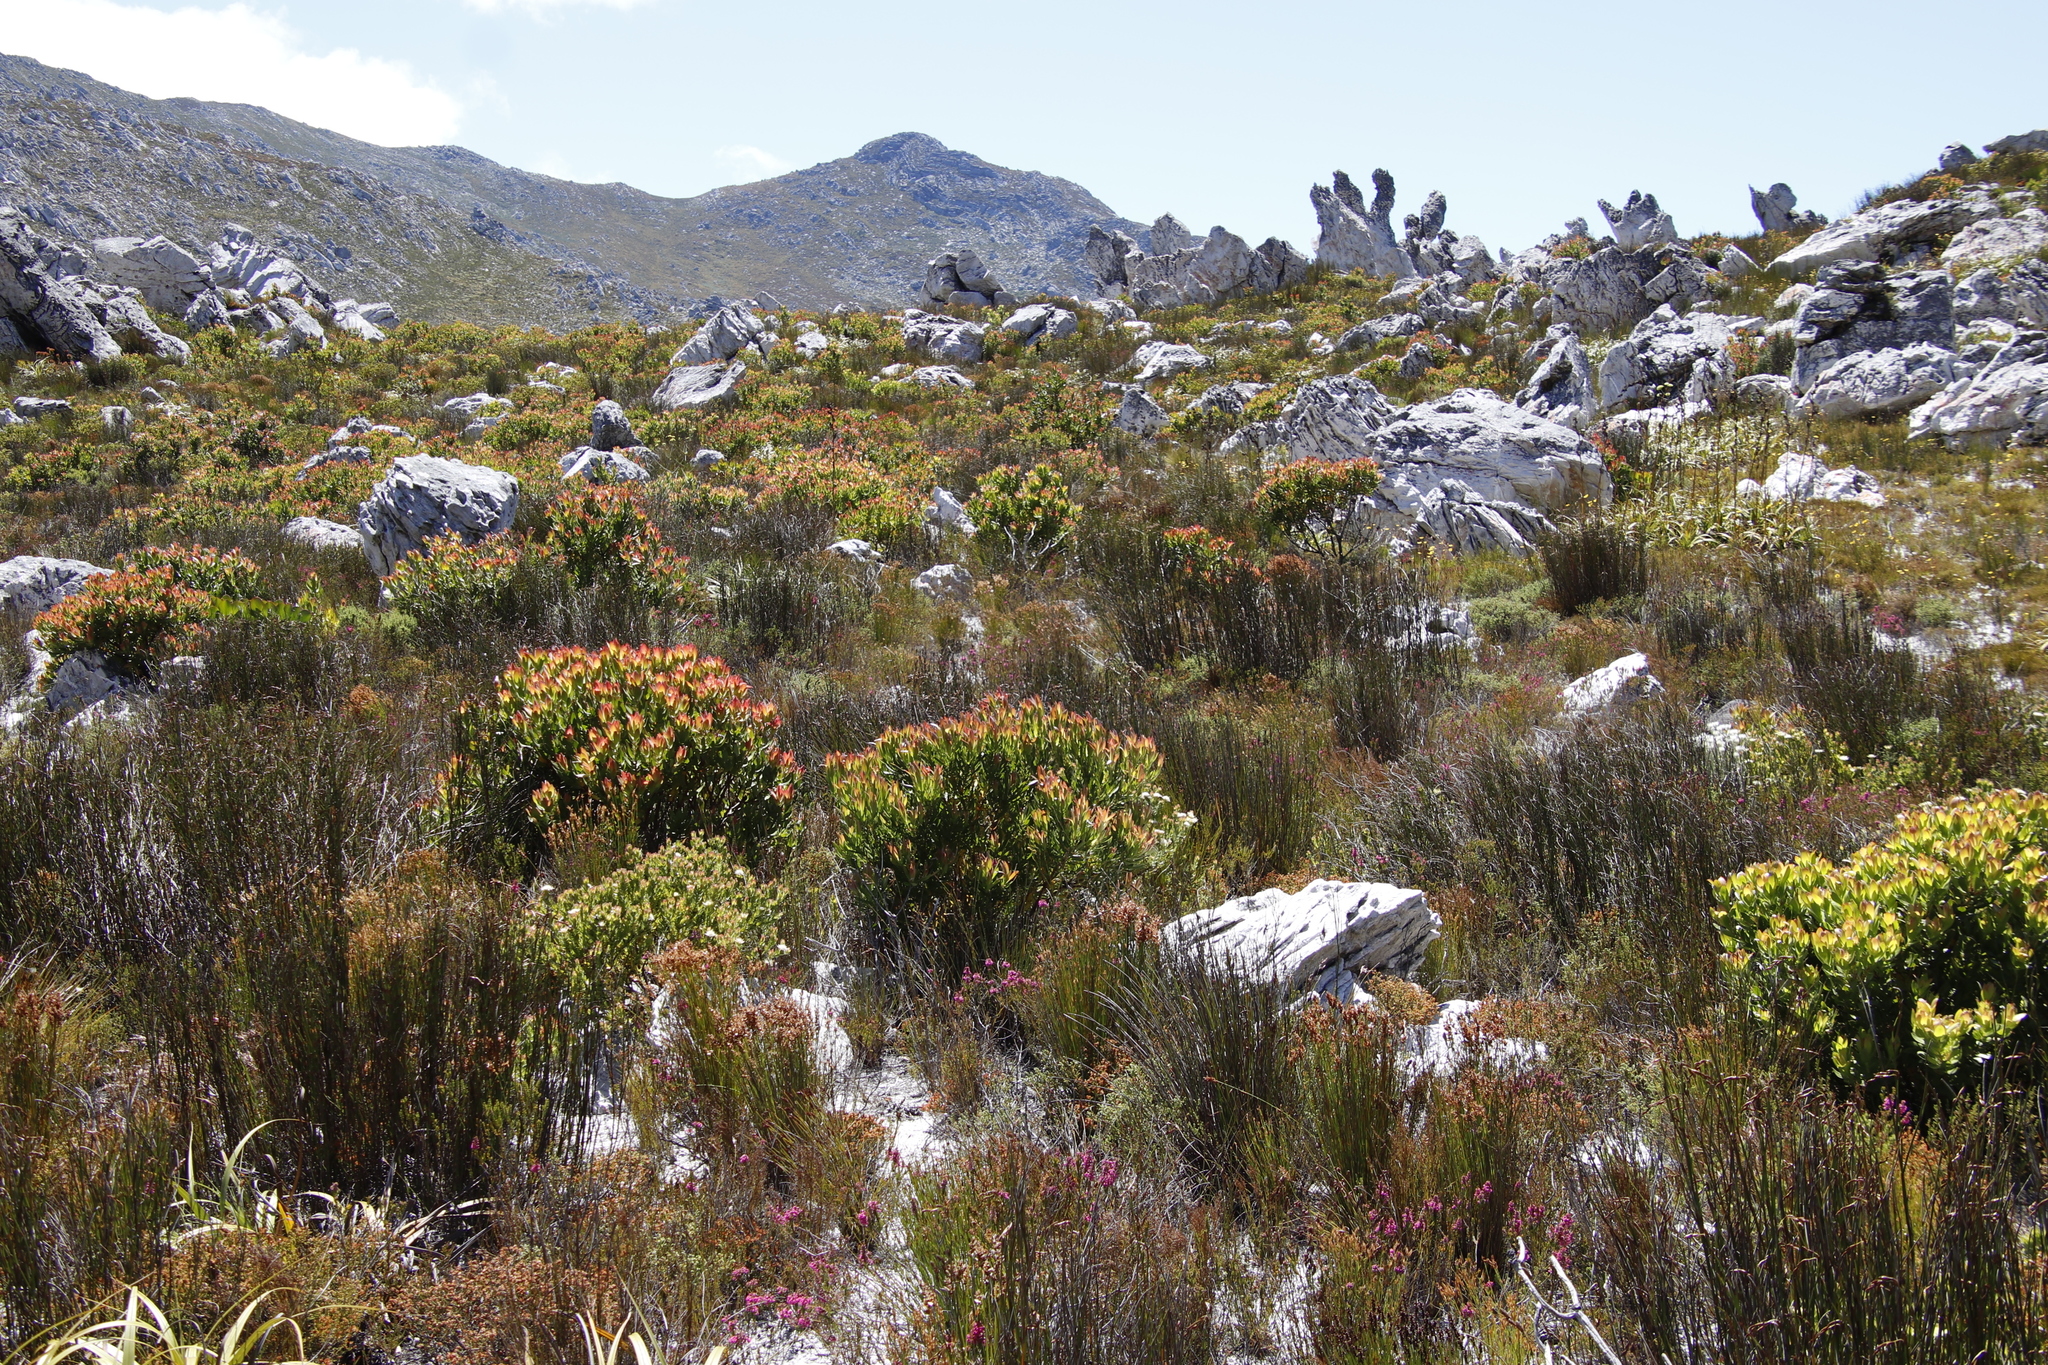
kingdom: Plantae
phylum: Tracheophyta
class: Magnoliopsida
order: Proteales
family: Proteaceae
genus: Leucadendron
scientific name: Leucadendron gandogeri
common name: Broad-leaf conebush
